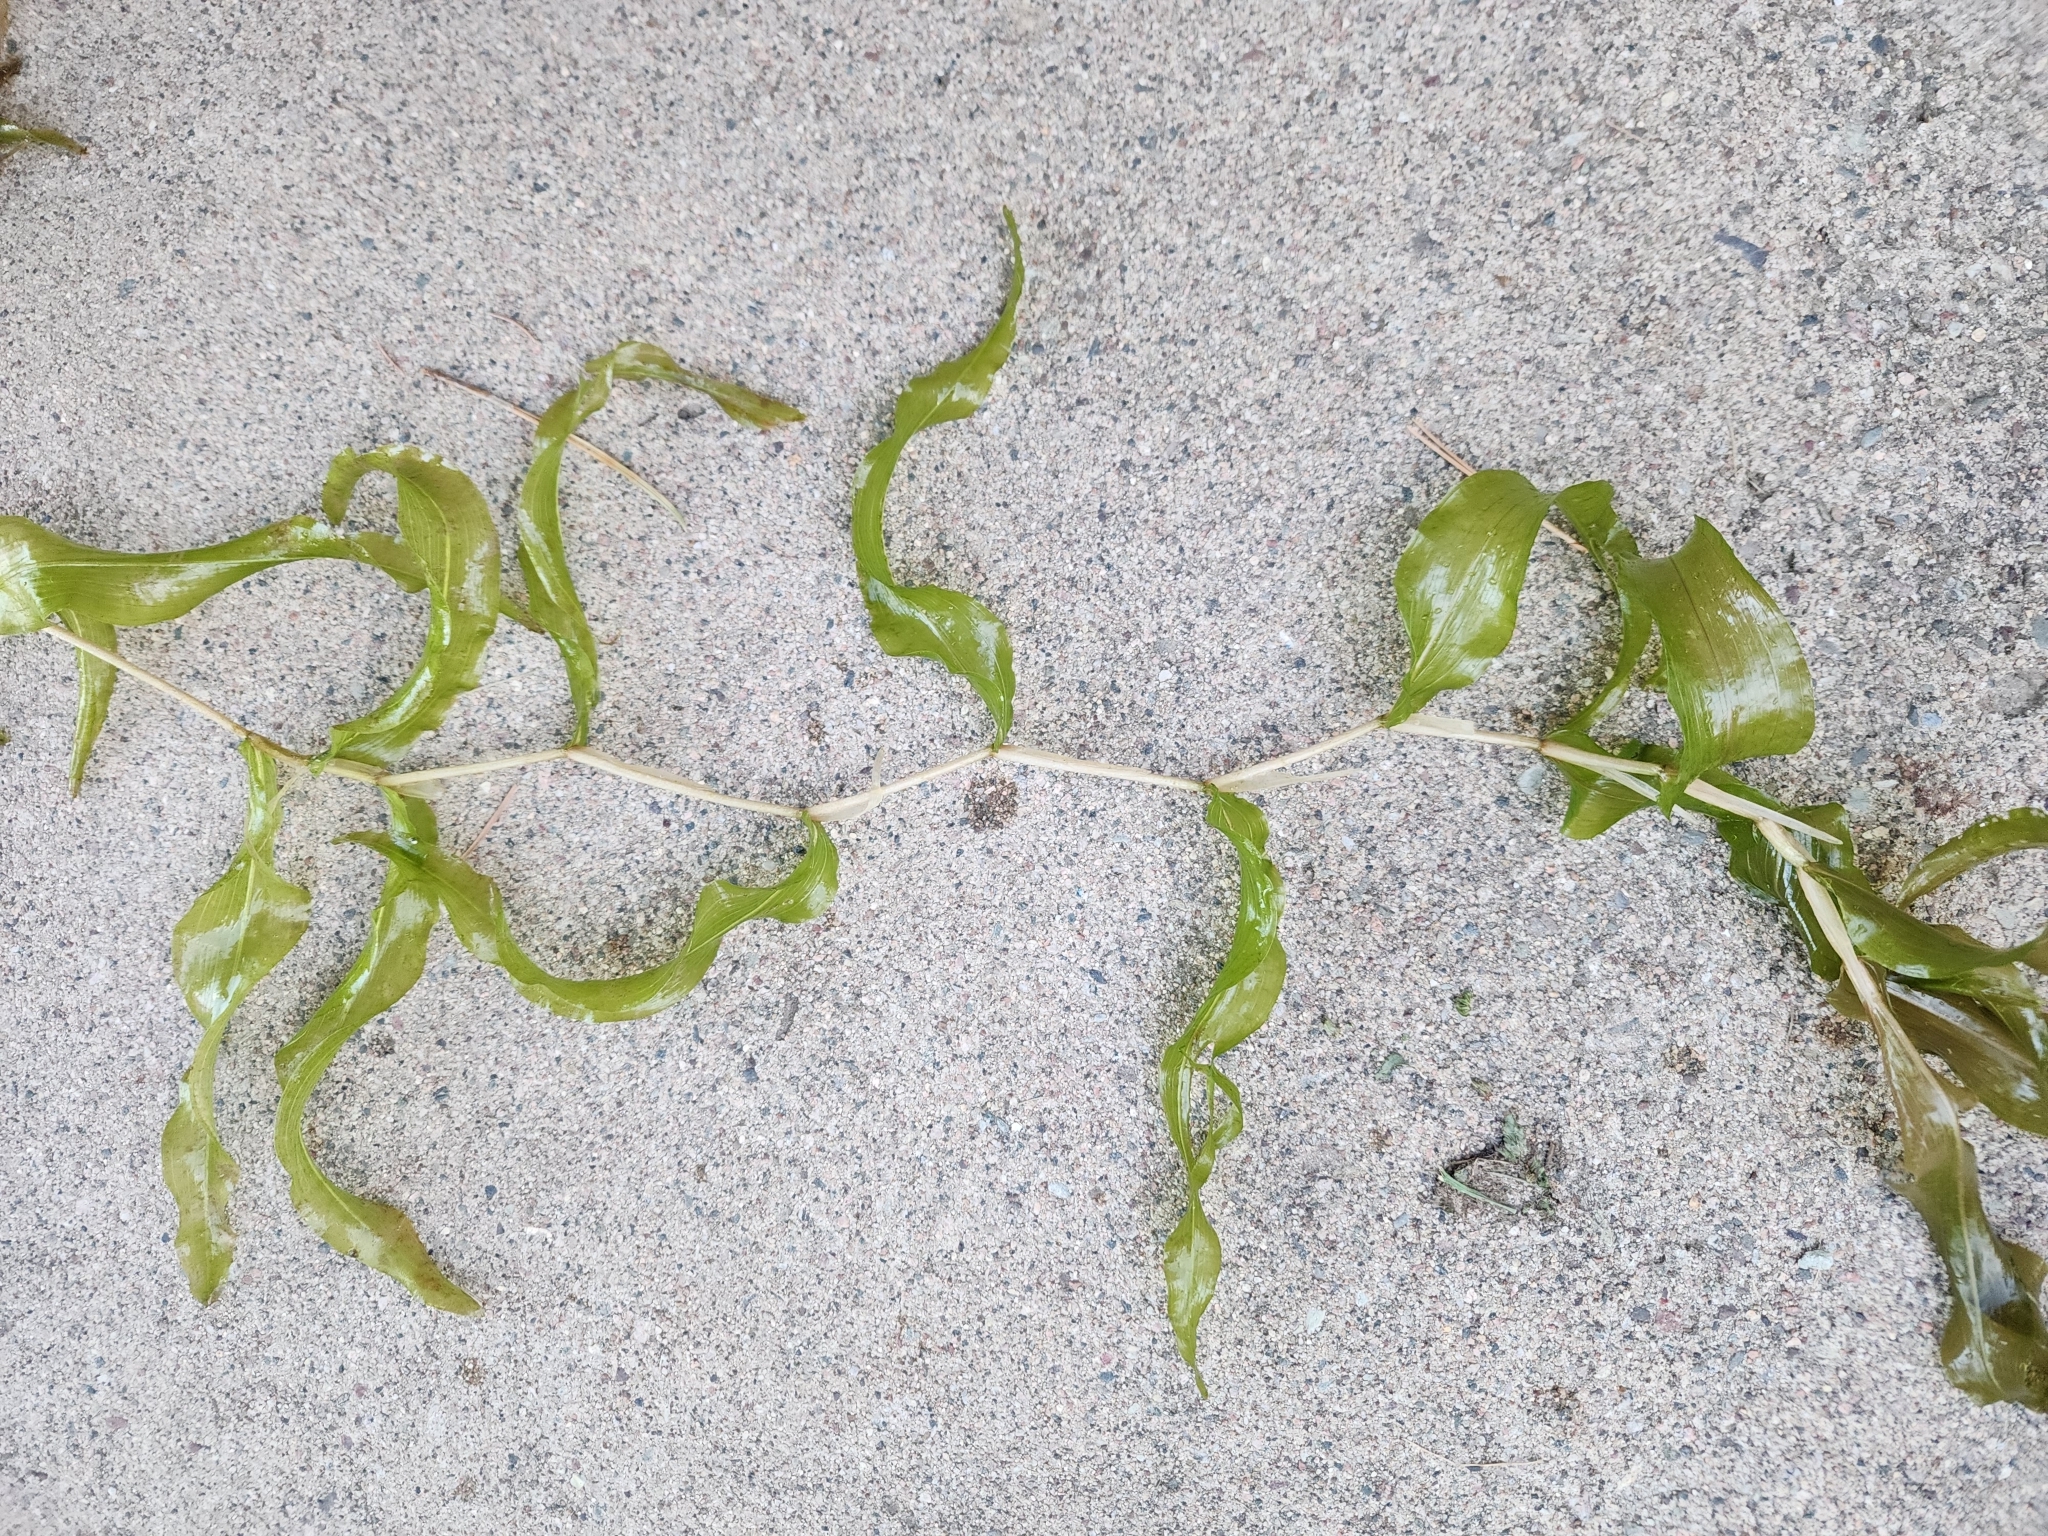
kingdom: Plantae
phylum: Tracheophyta
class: Liliopsida
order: Alismatales
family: Potamogetonaceae
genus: Potamogeton
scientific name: Potamogeton praelongus
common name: Long-stalked pondweed
